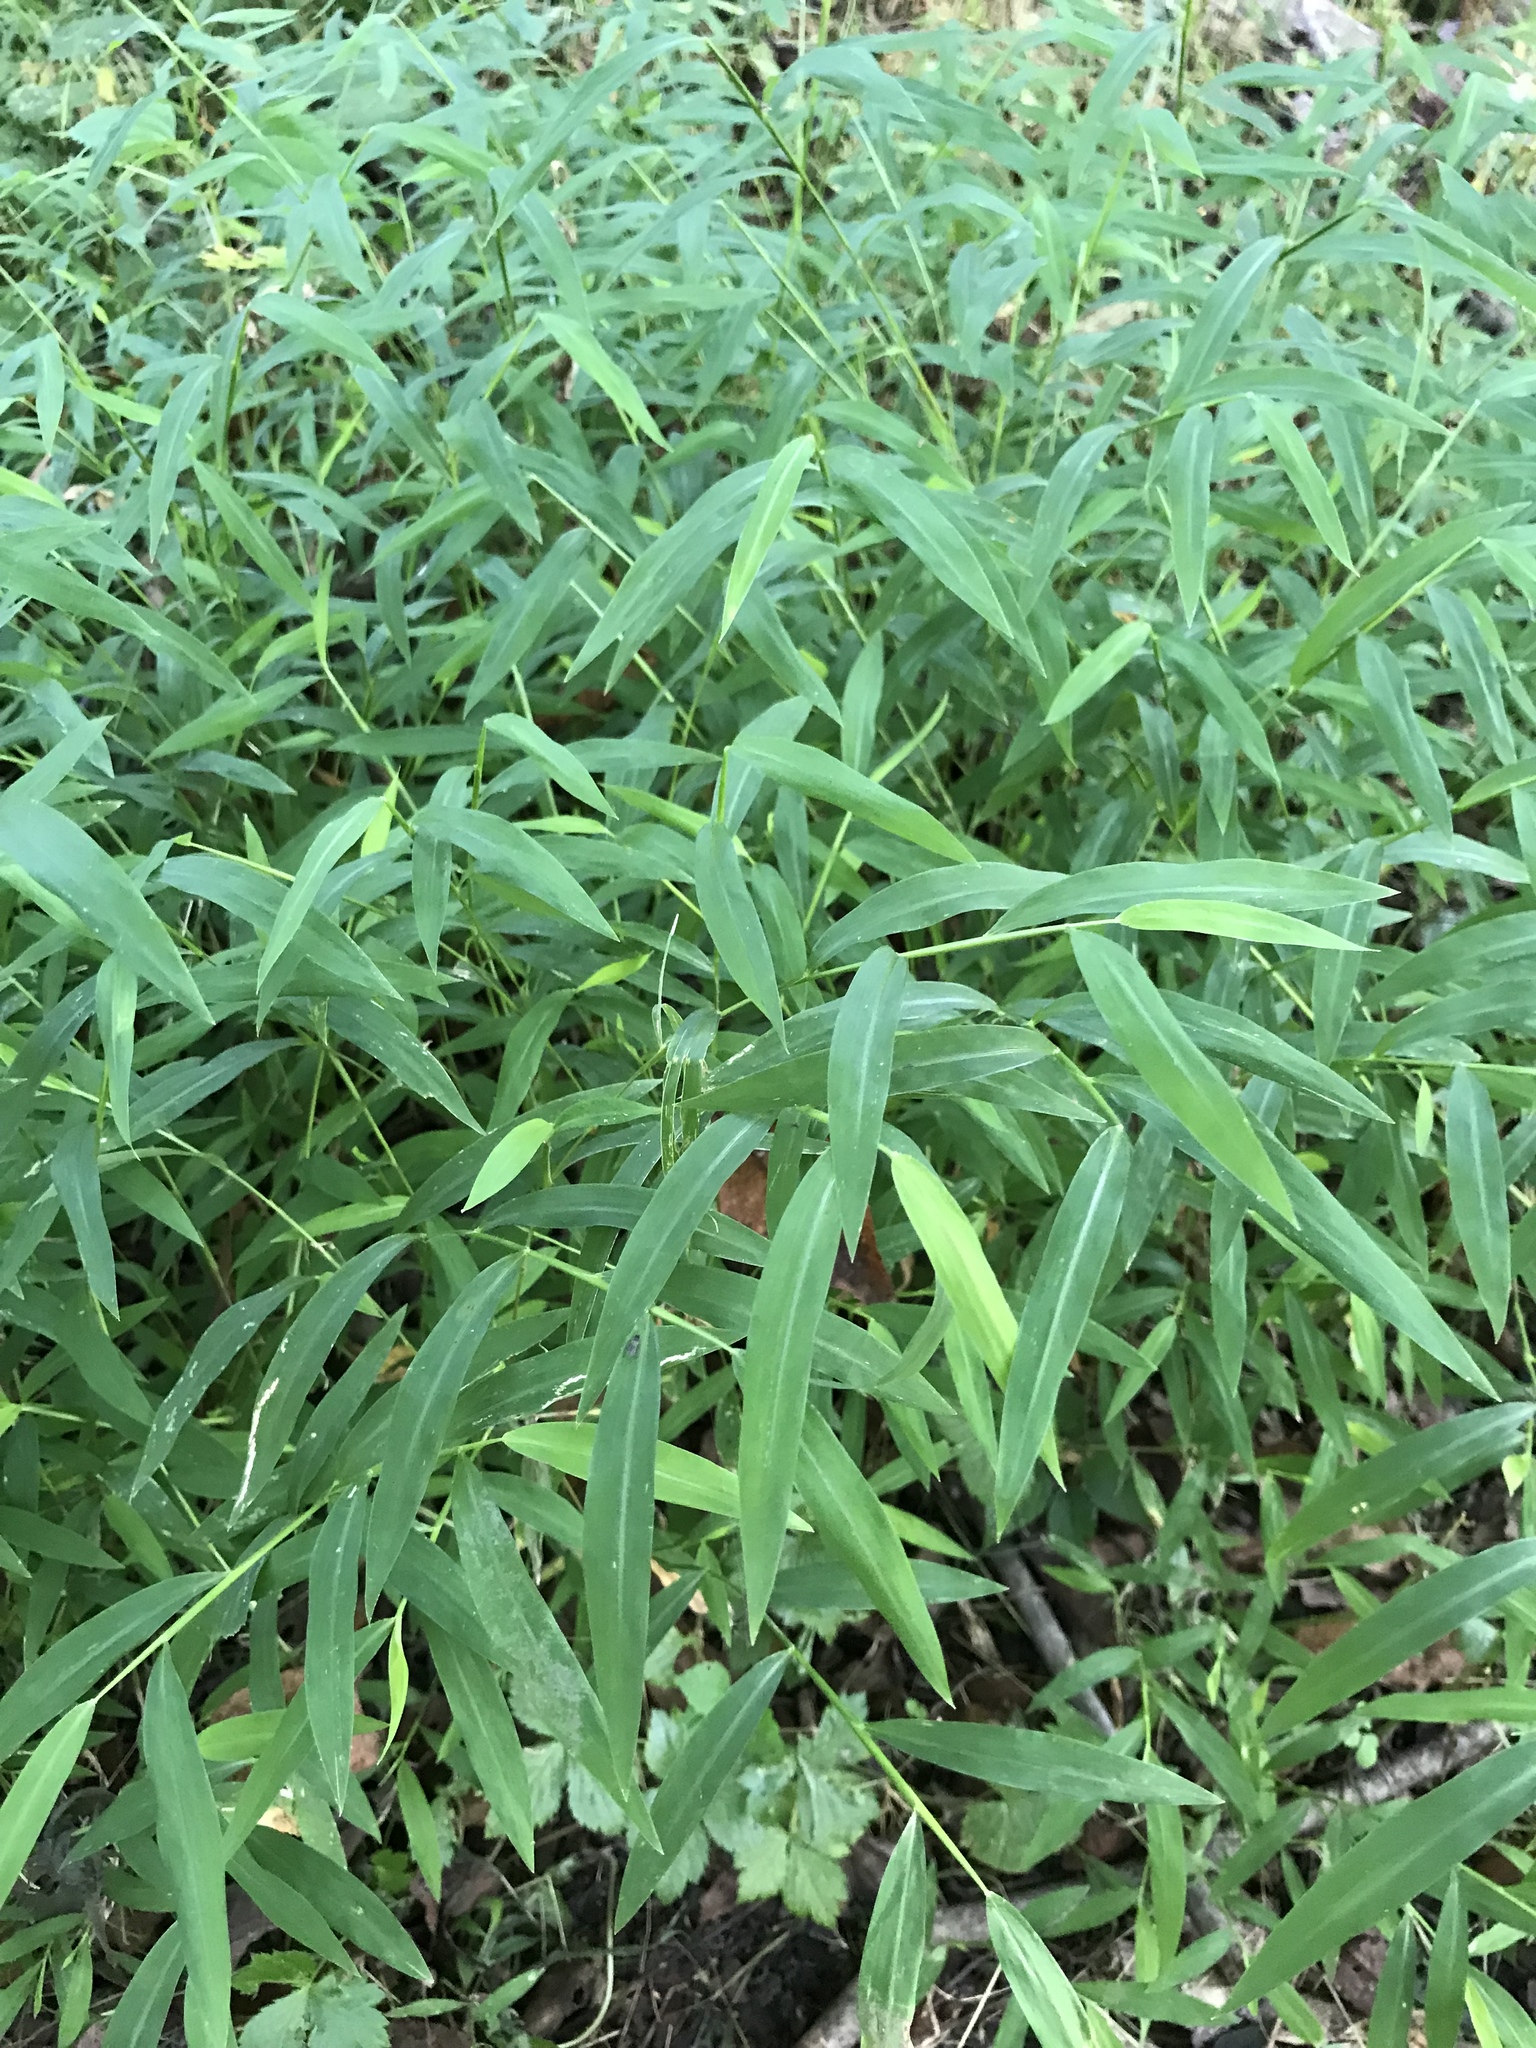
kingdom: Plantae
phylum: Tracheophyta
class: Liliopsida
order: Poales
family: Poaceae
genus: Microstegium
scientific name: Microstegium vimineum
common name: Japanese stiltgrass
